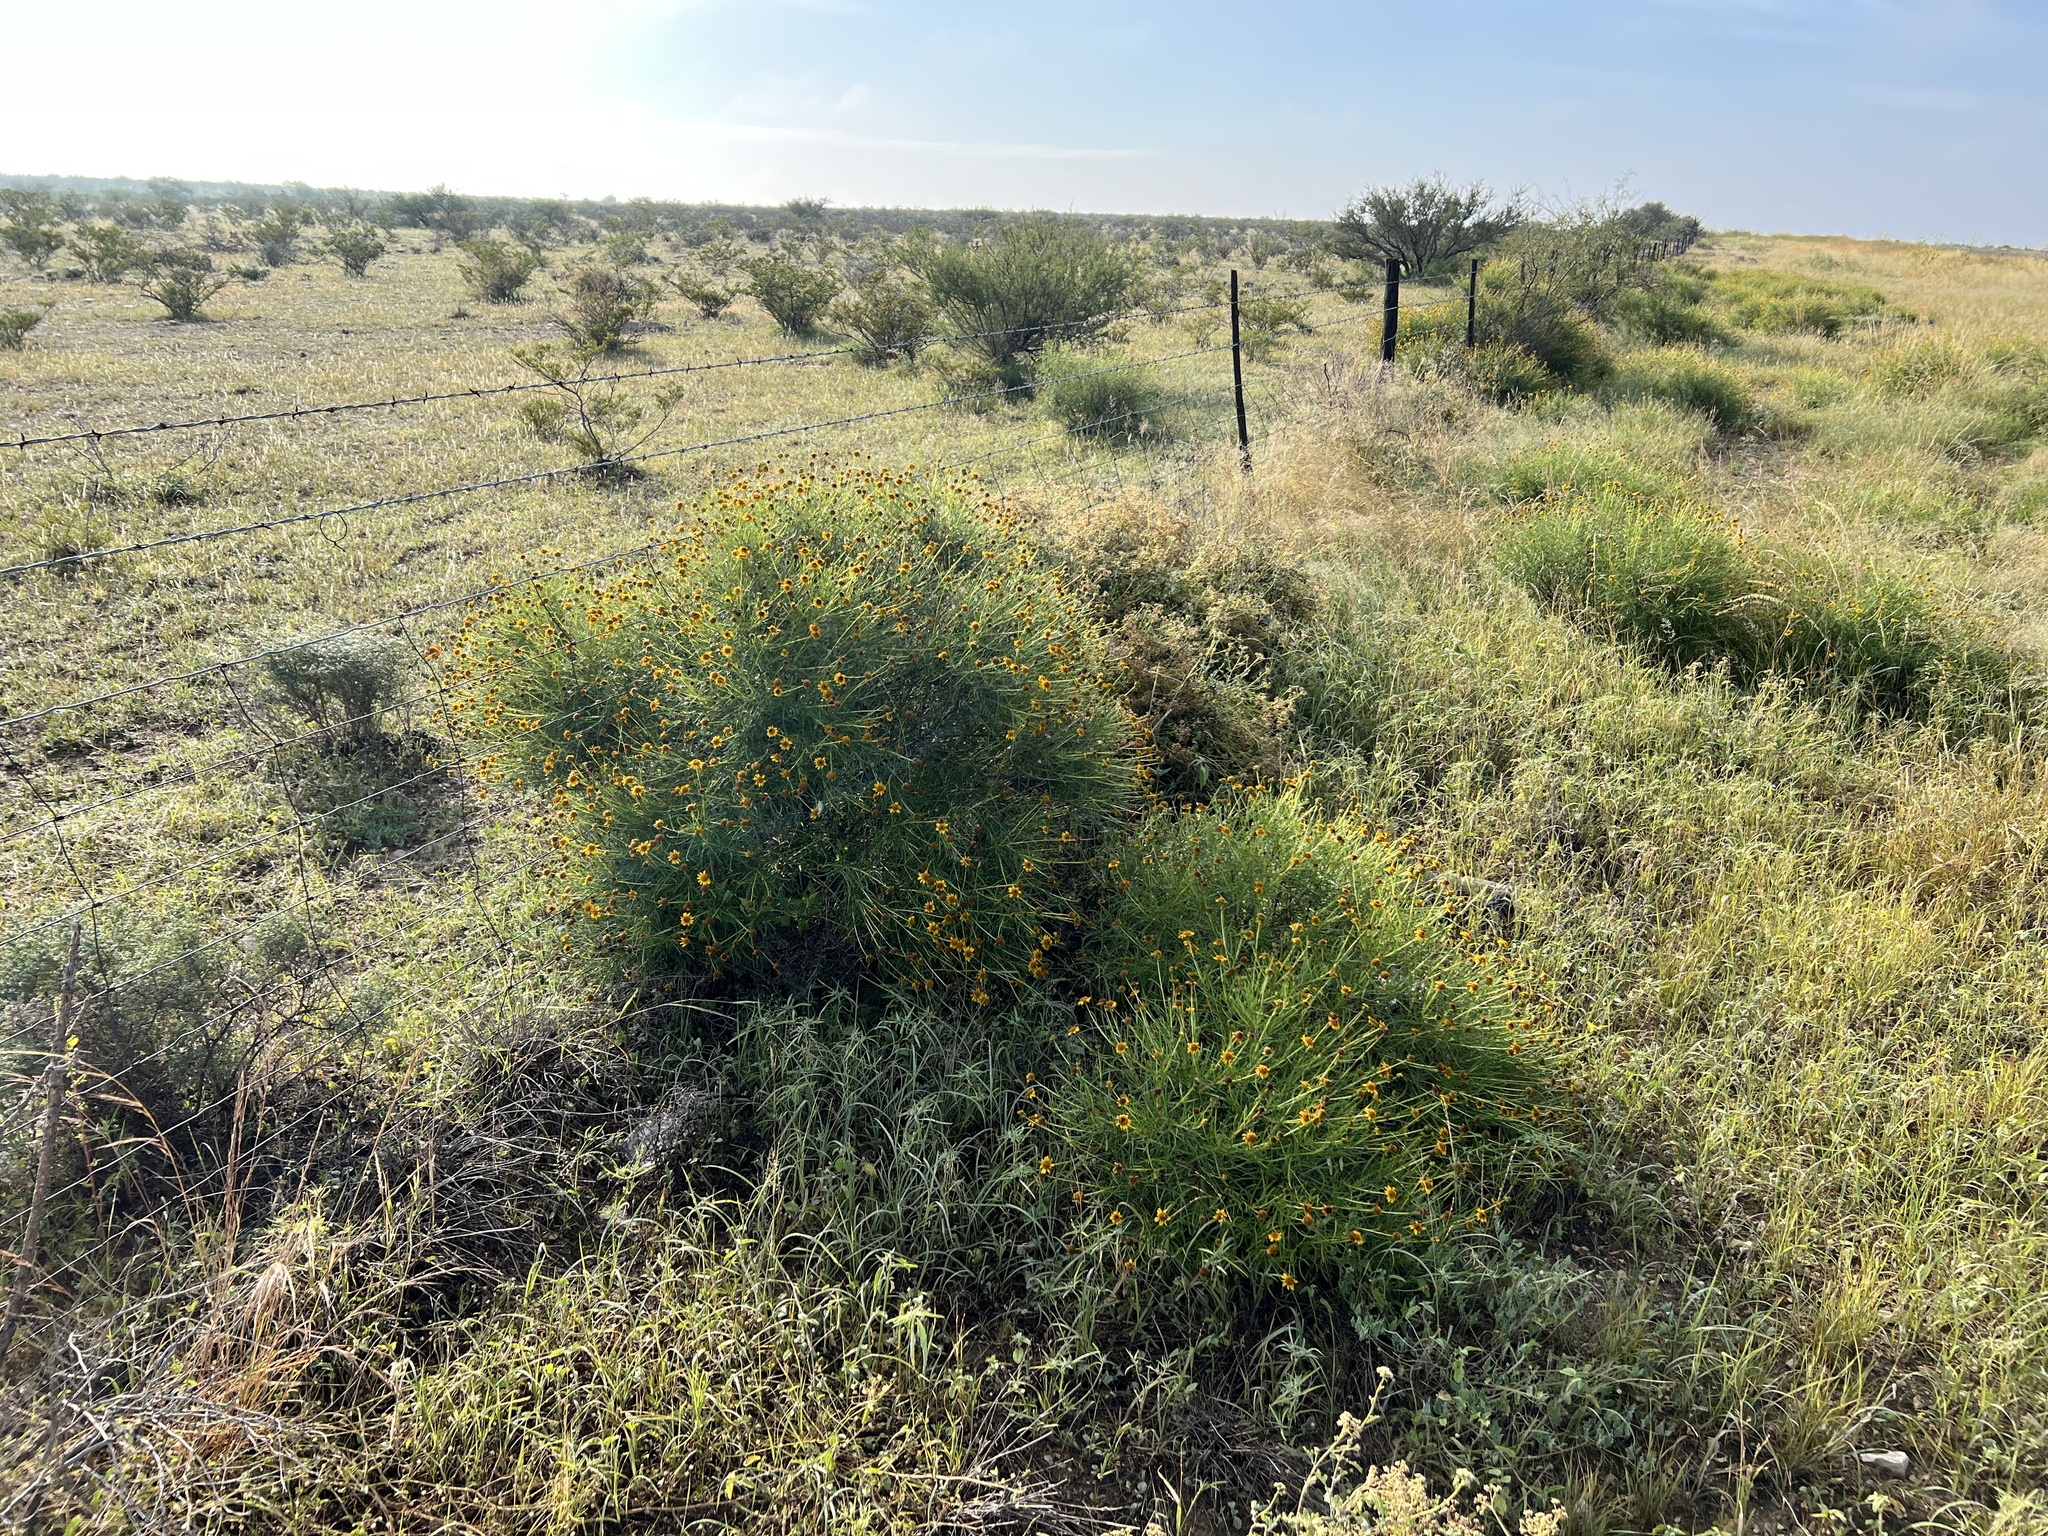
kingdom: Plantae
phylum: Tracheophyta
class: Magnoliopsida
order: Asterales
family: Asteraceae
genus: Sidneya
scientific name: Sidneya tenuifolia
